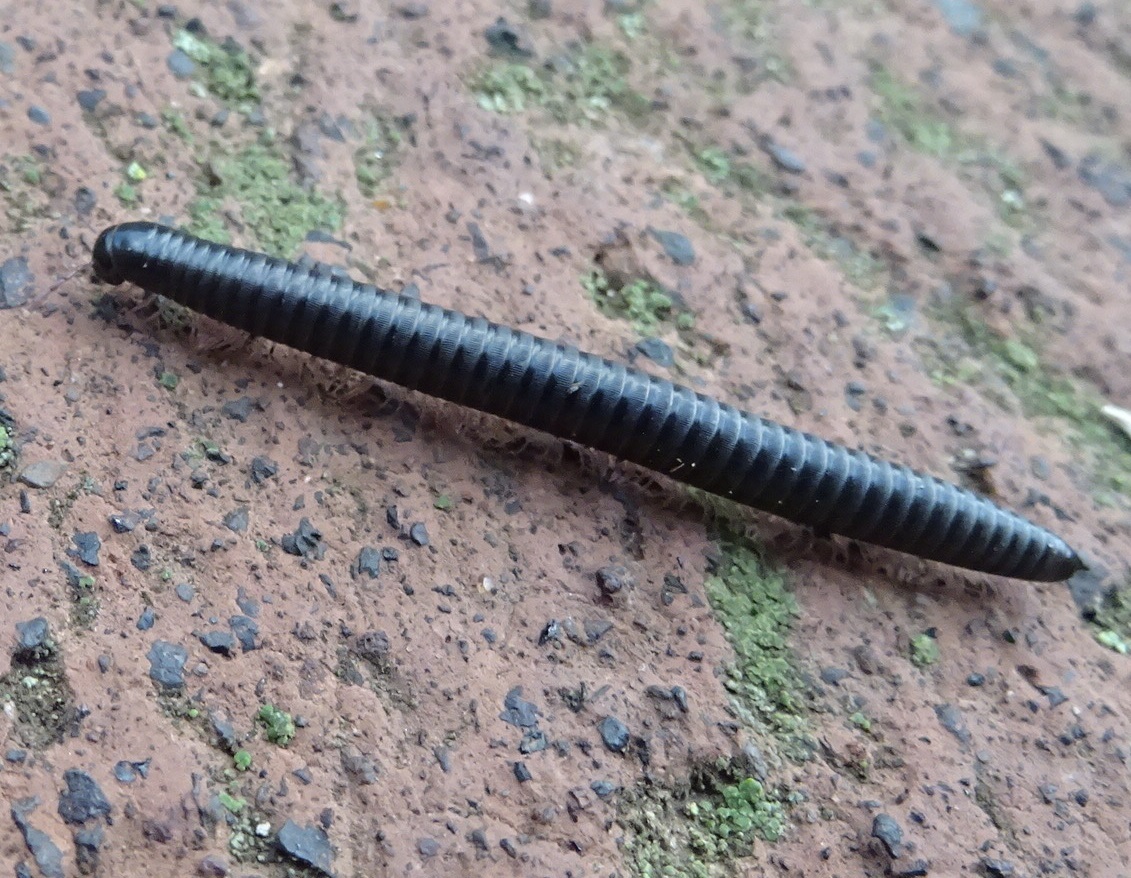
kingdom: Animalia
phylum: Arthropoda
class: Diplopoda
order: Julida
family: Julidae
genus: Ommatoiulus
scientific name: Ommatoiulus moreleti
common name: Portuguese millipede
